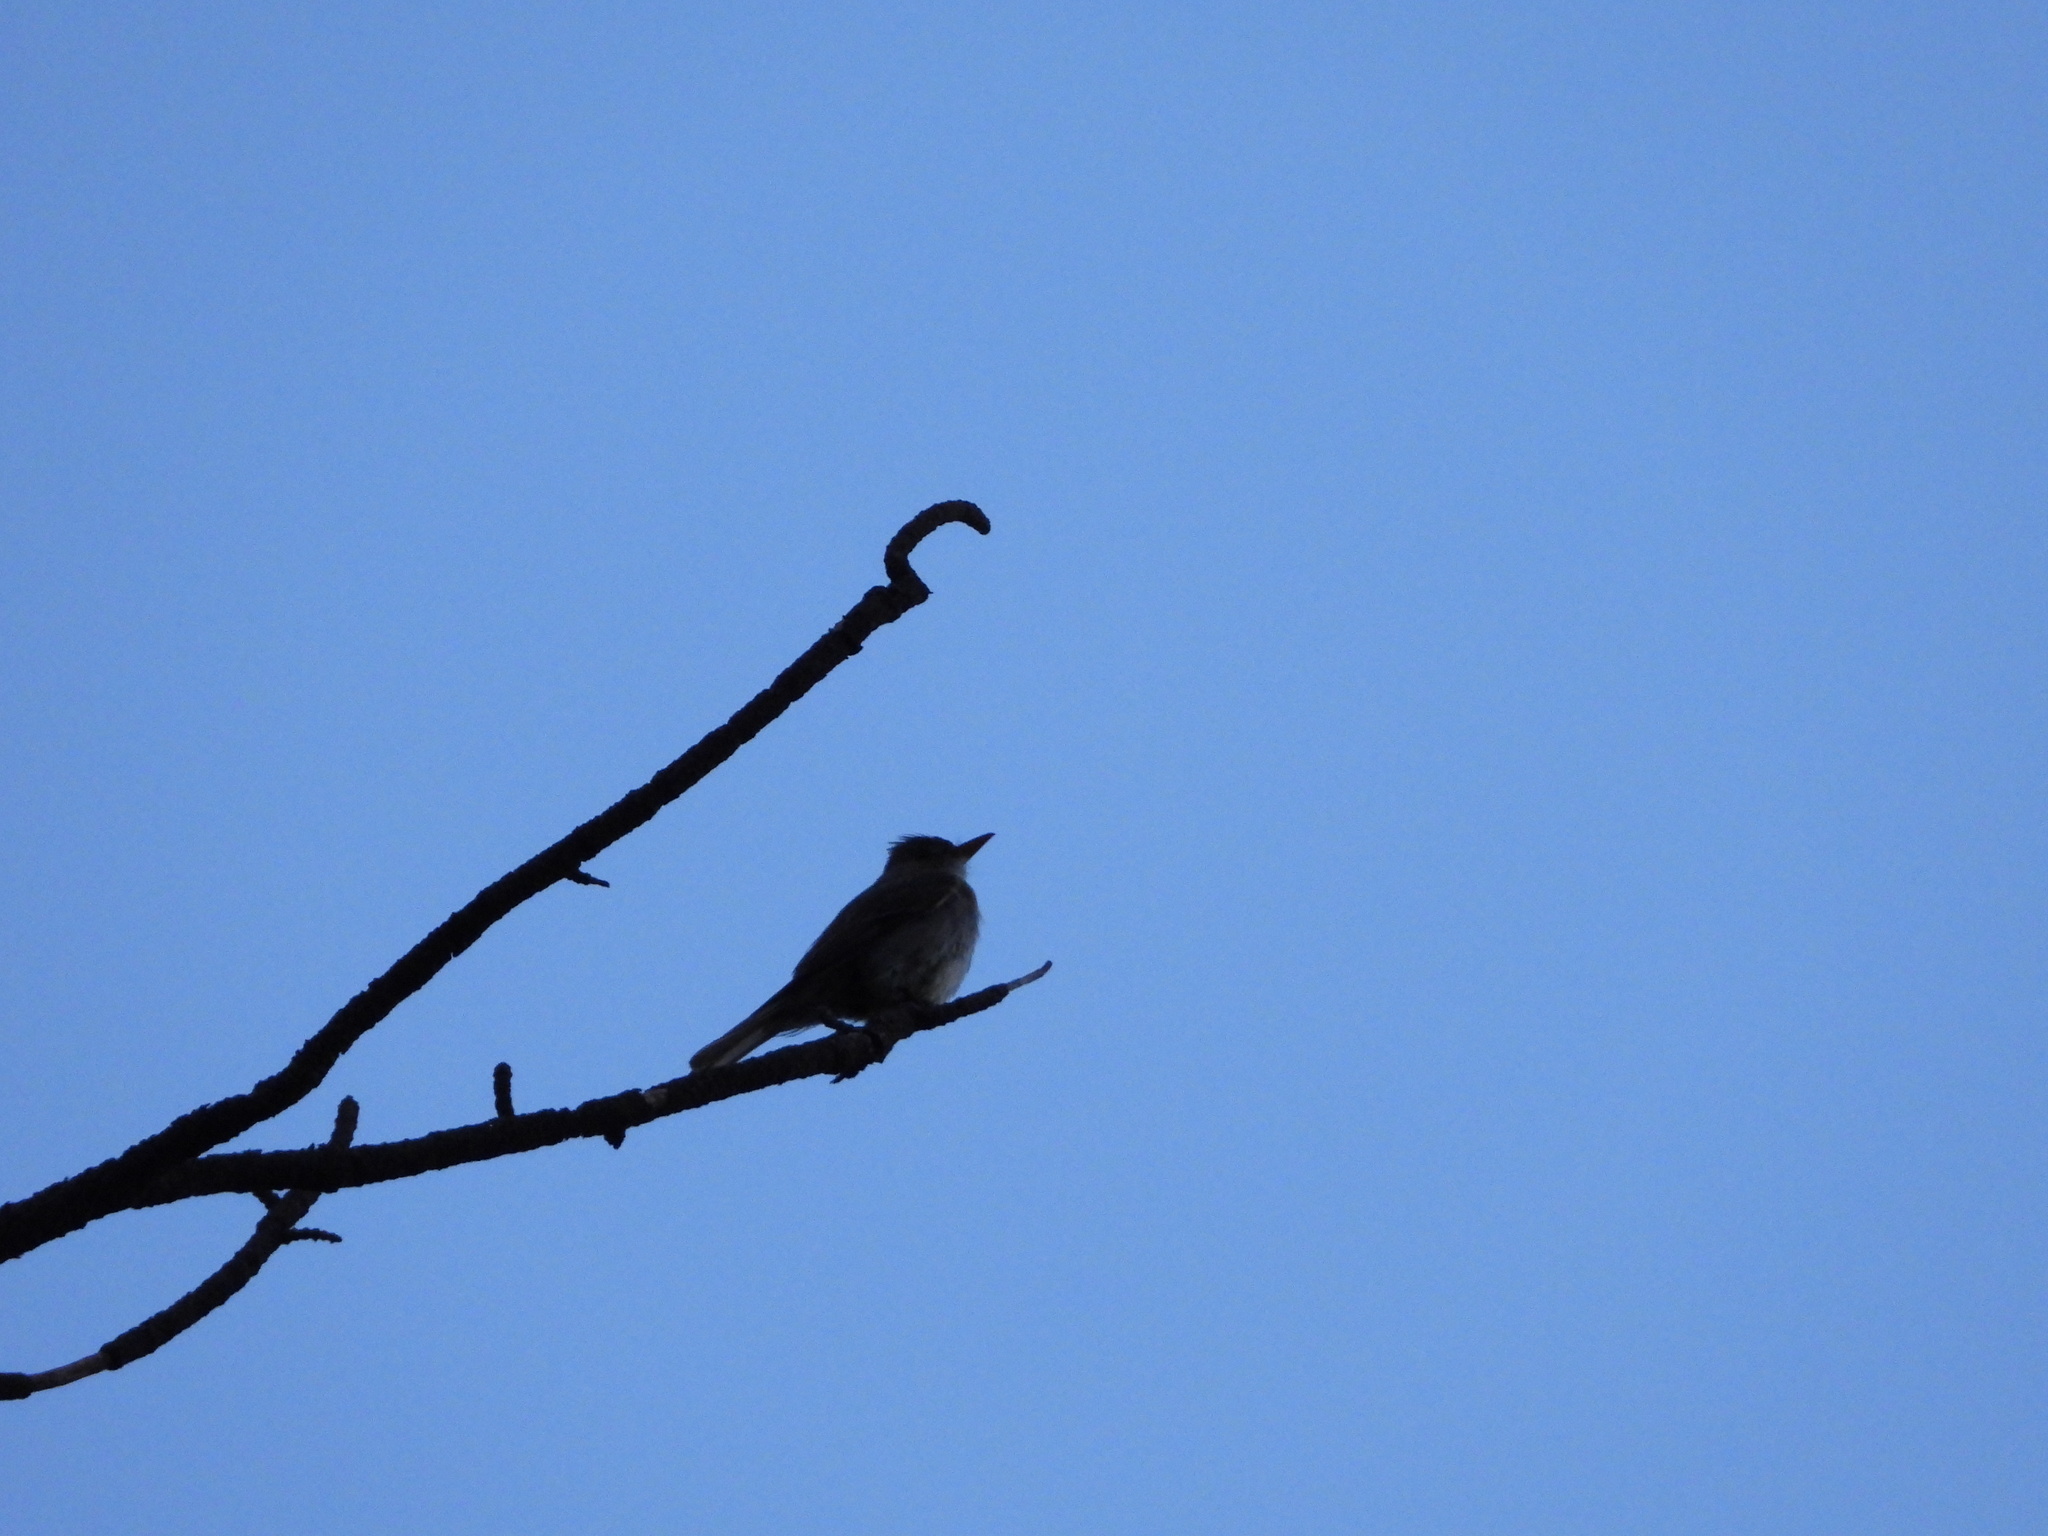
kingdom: Animalia
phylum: Chordata
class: Aves
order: Passeriformes
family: Tyrannidae
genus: Contopus
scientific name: Contopus pertinax
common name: Greater pewee
